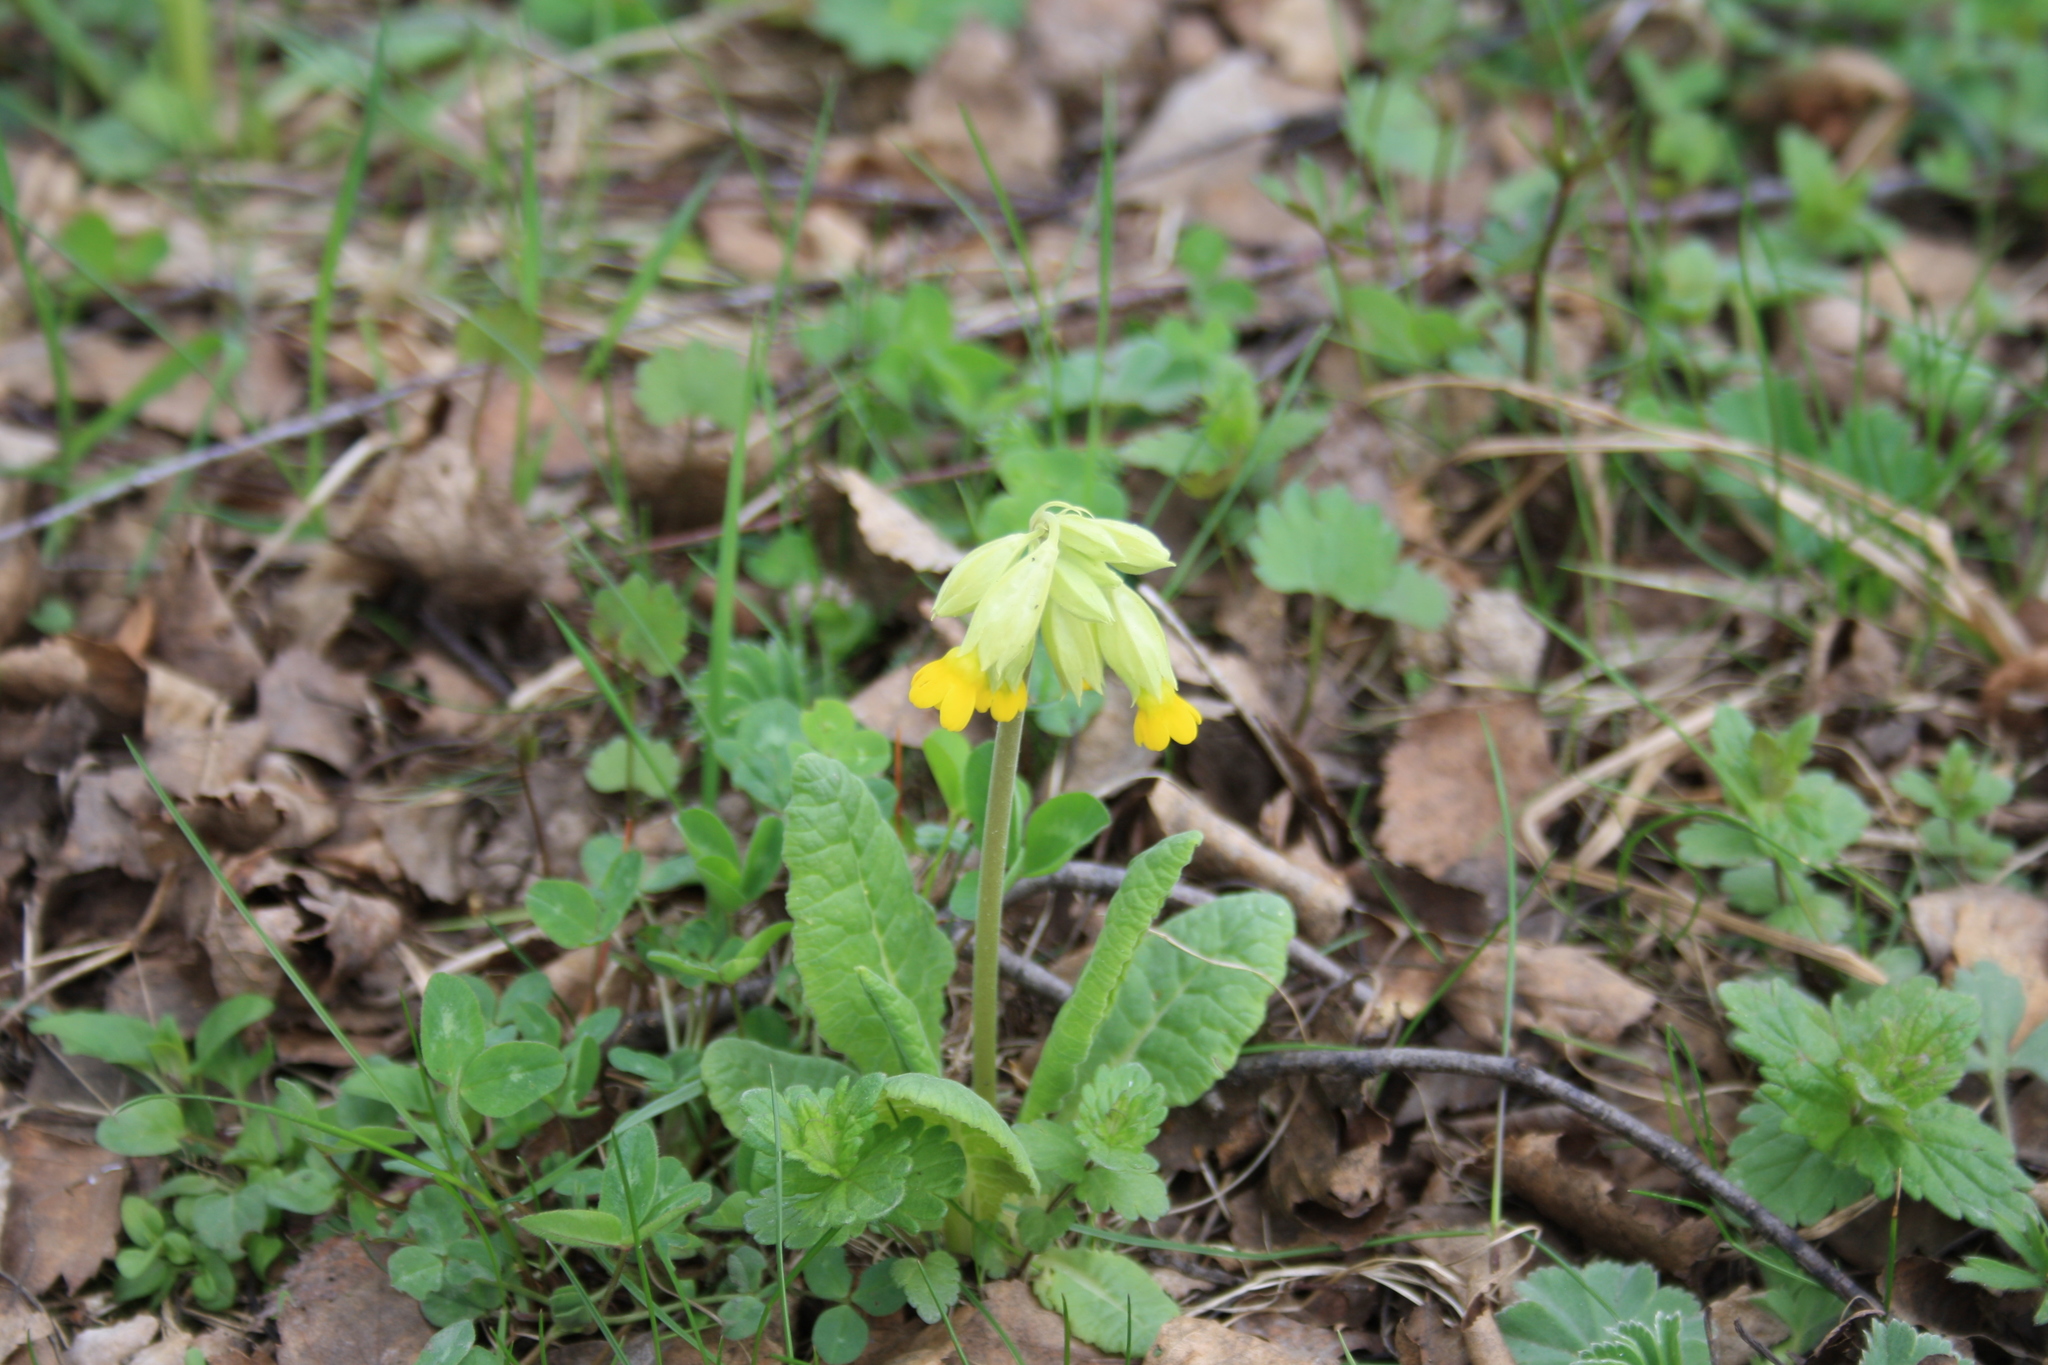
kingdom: Plantae
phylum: Tracheophyta
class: Magnoliopsida
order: Ericales
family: Primulaceae
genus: Primula
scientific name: Primula veris
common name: Cowslip
